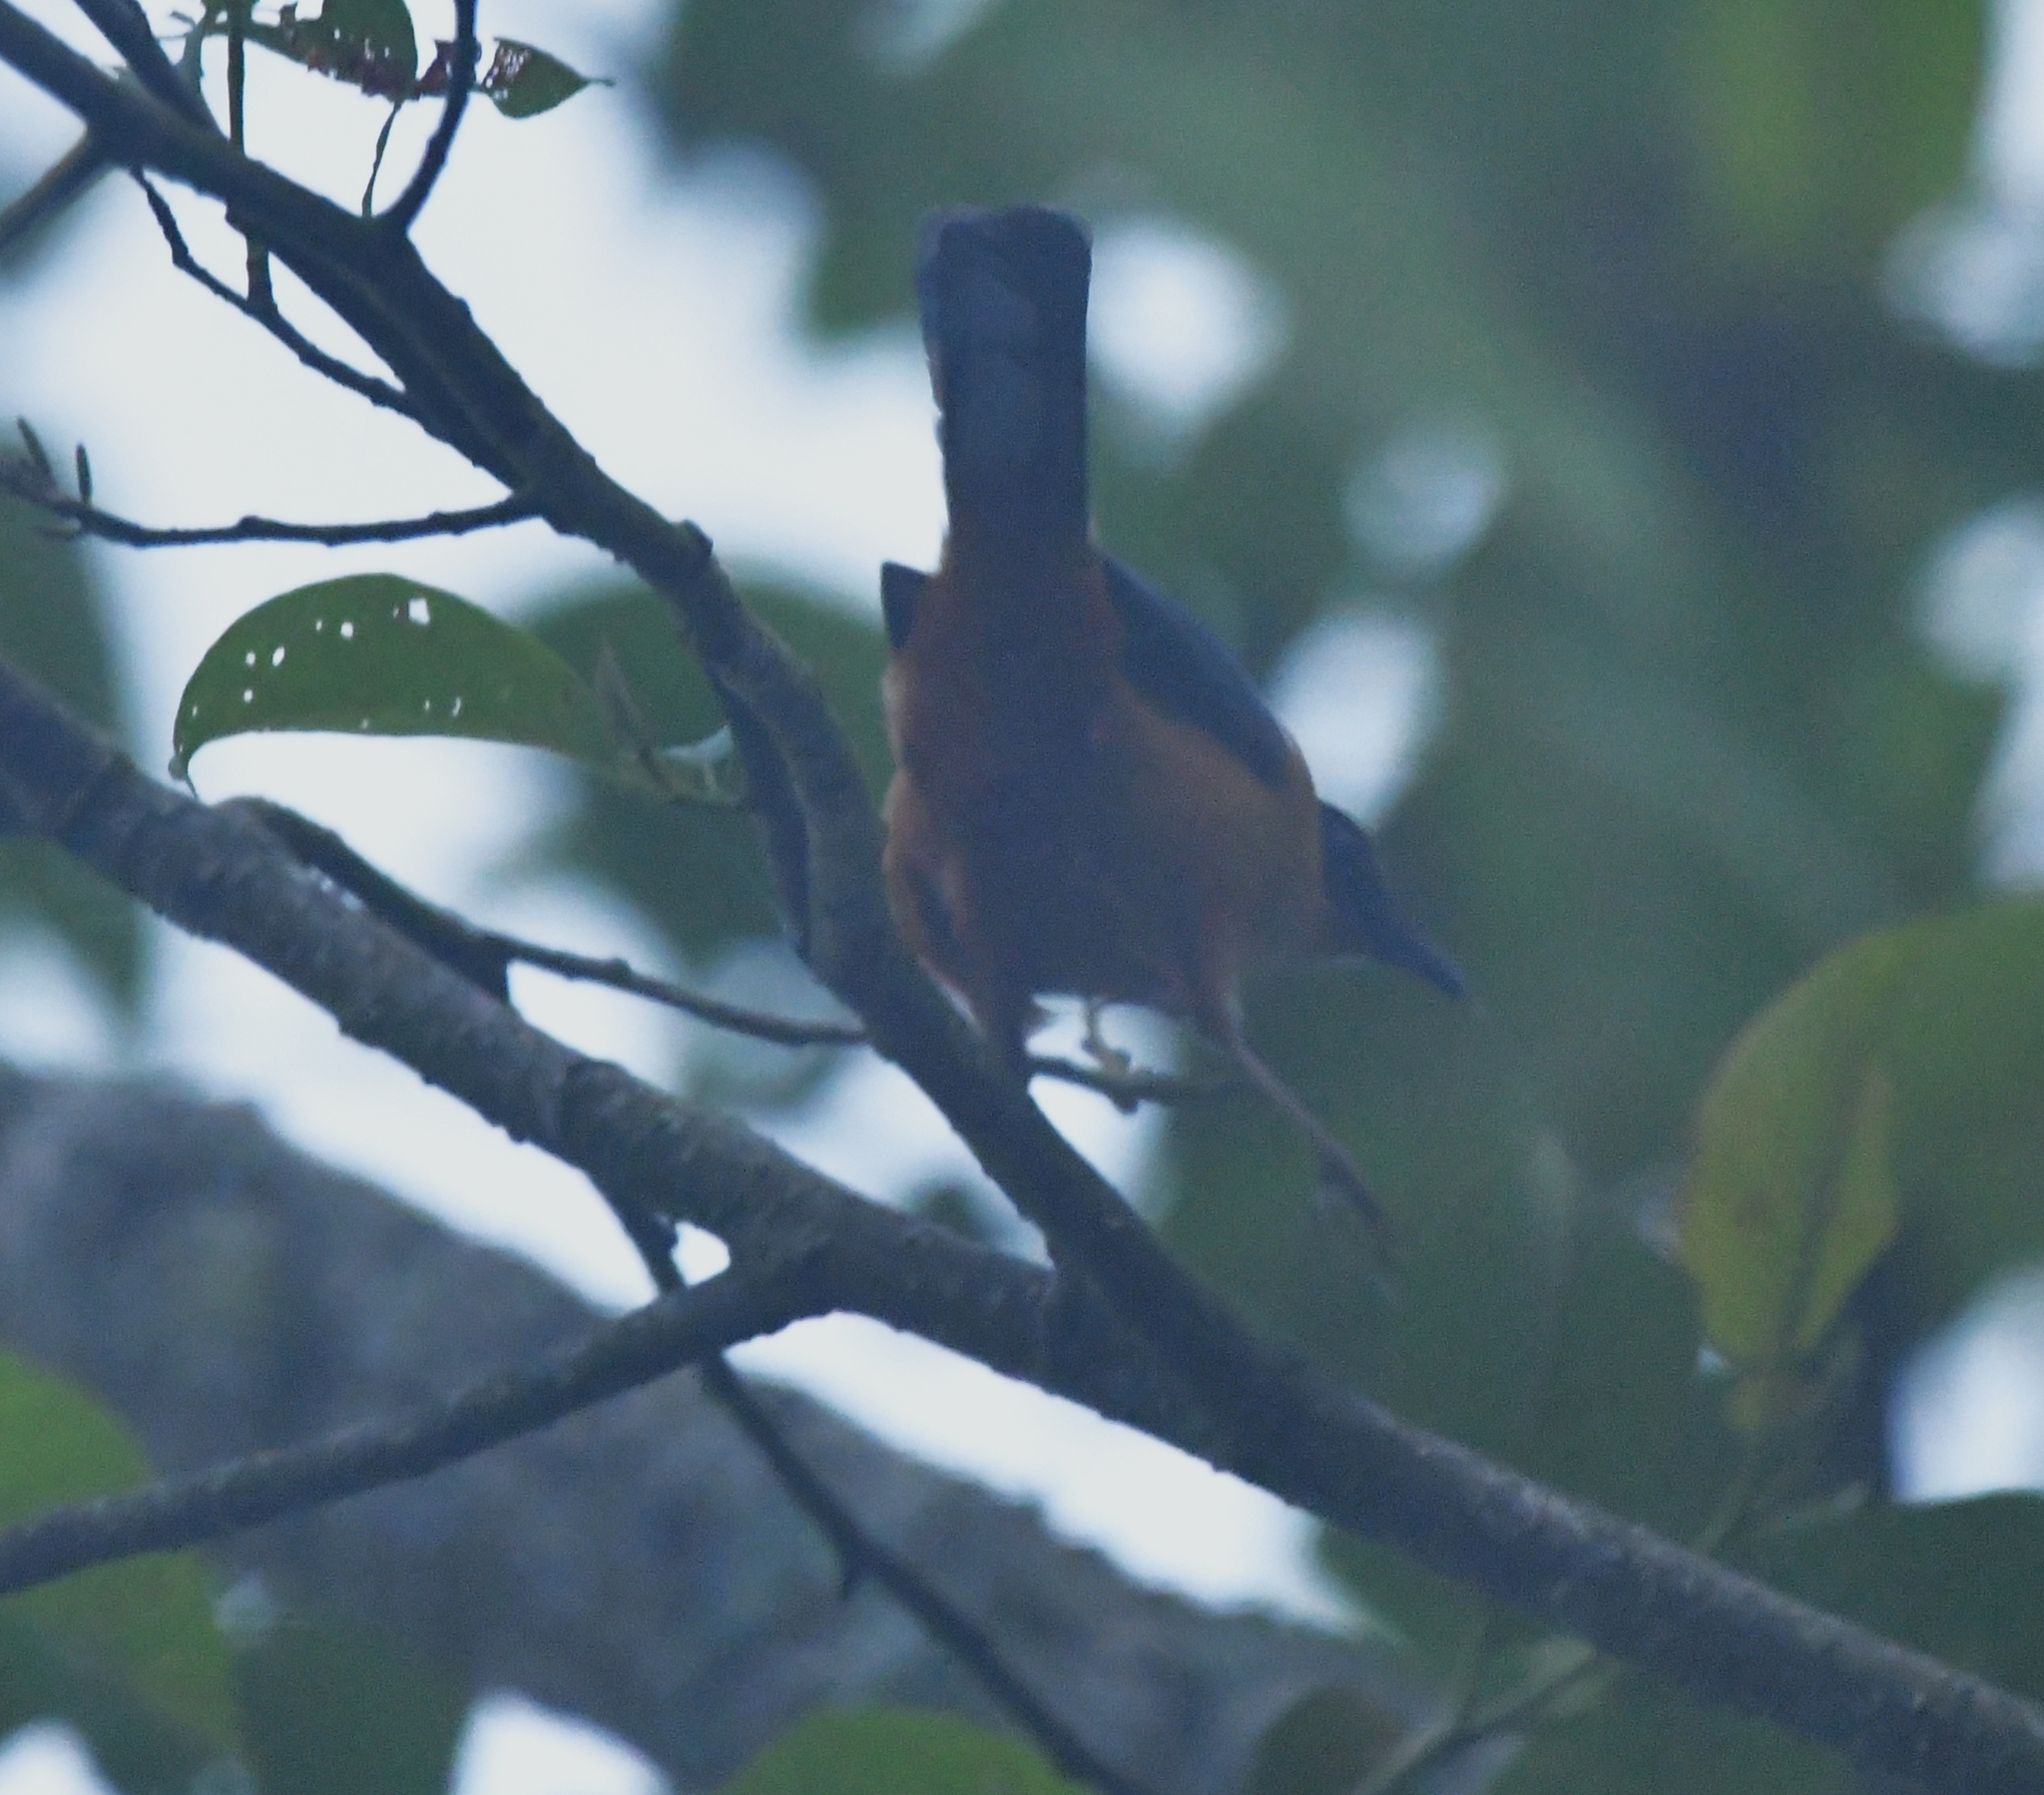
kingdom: Animalia
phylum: Chordata
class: Aves
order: Passeriformes
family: Leiothrichidae
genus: Heterophasia
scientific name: Heterophasia capistrata
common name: Rufous sibia
